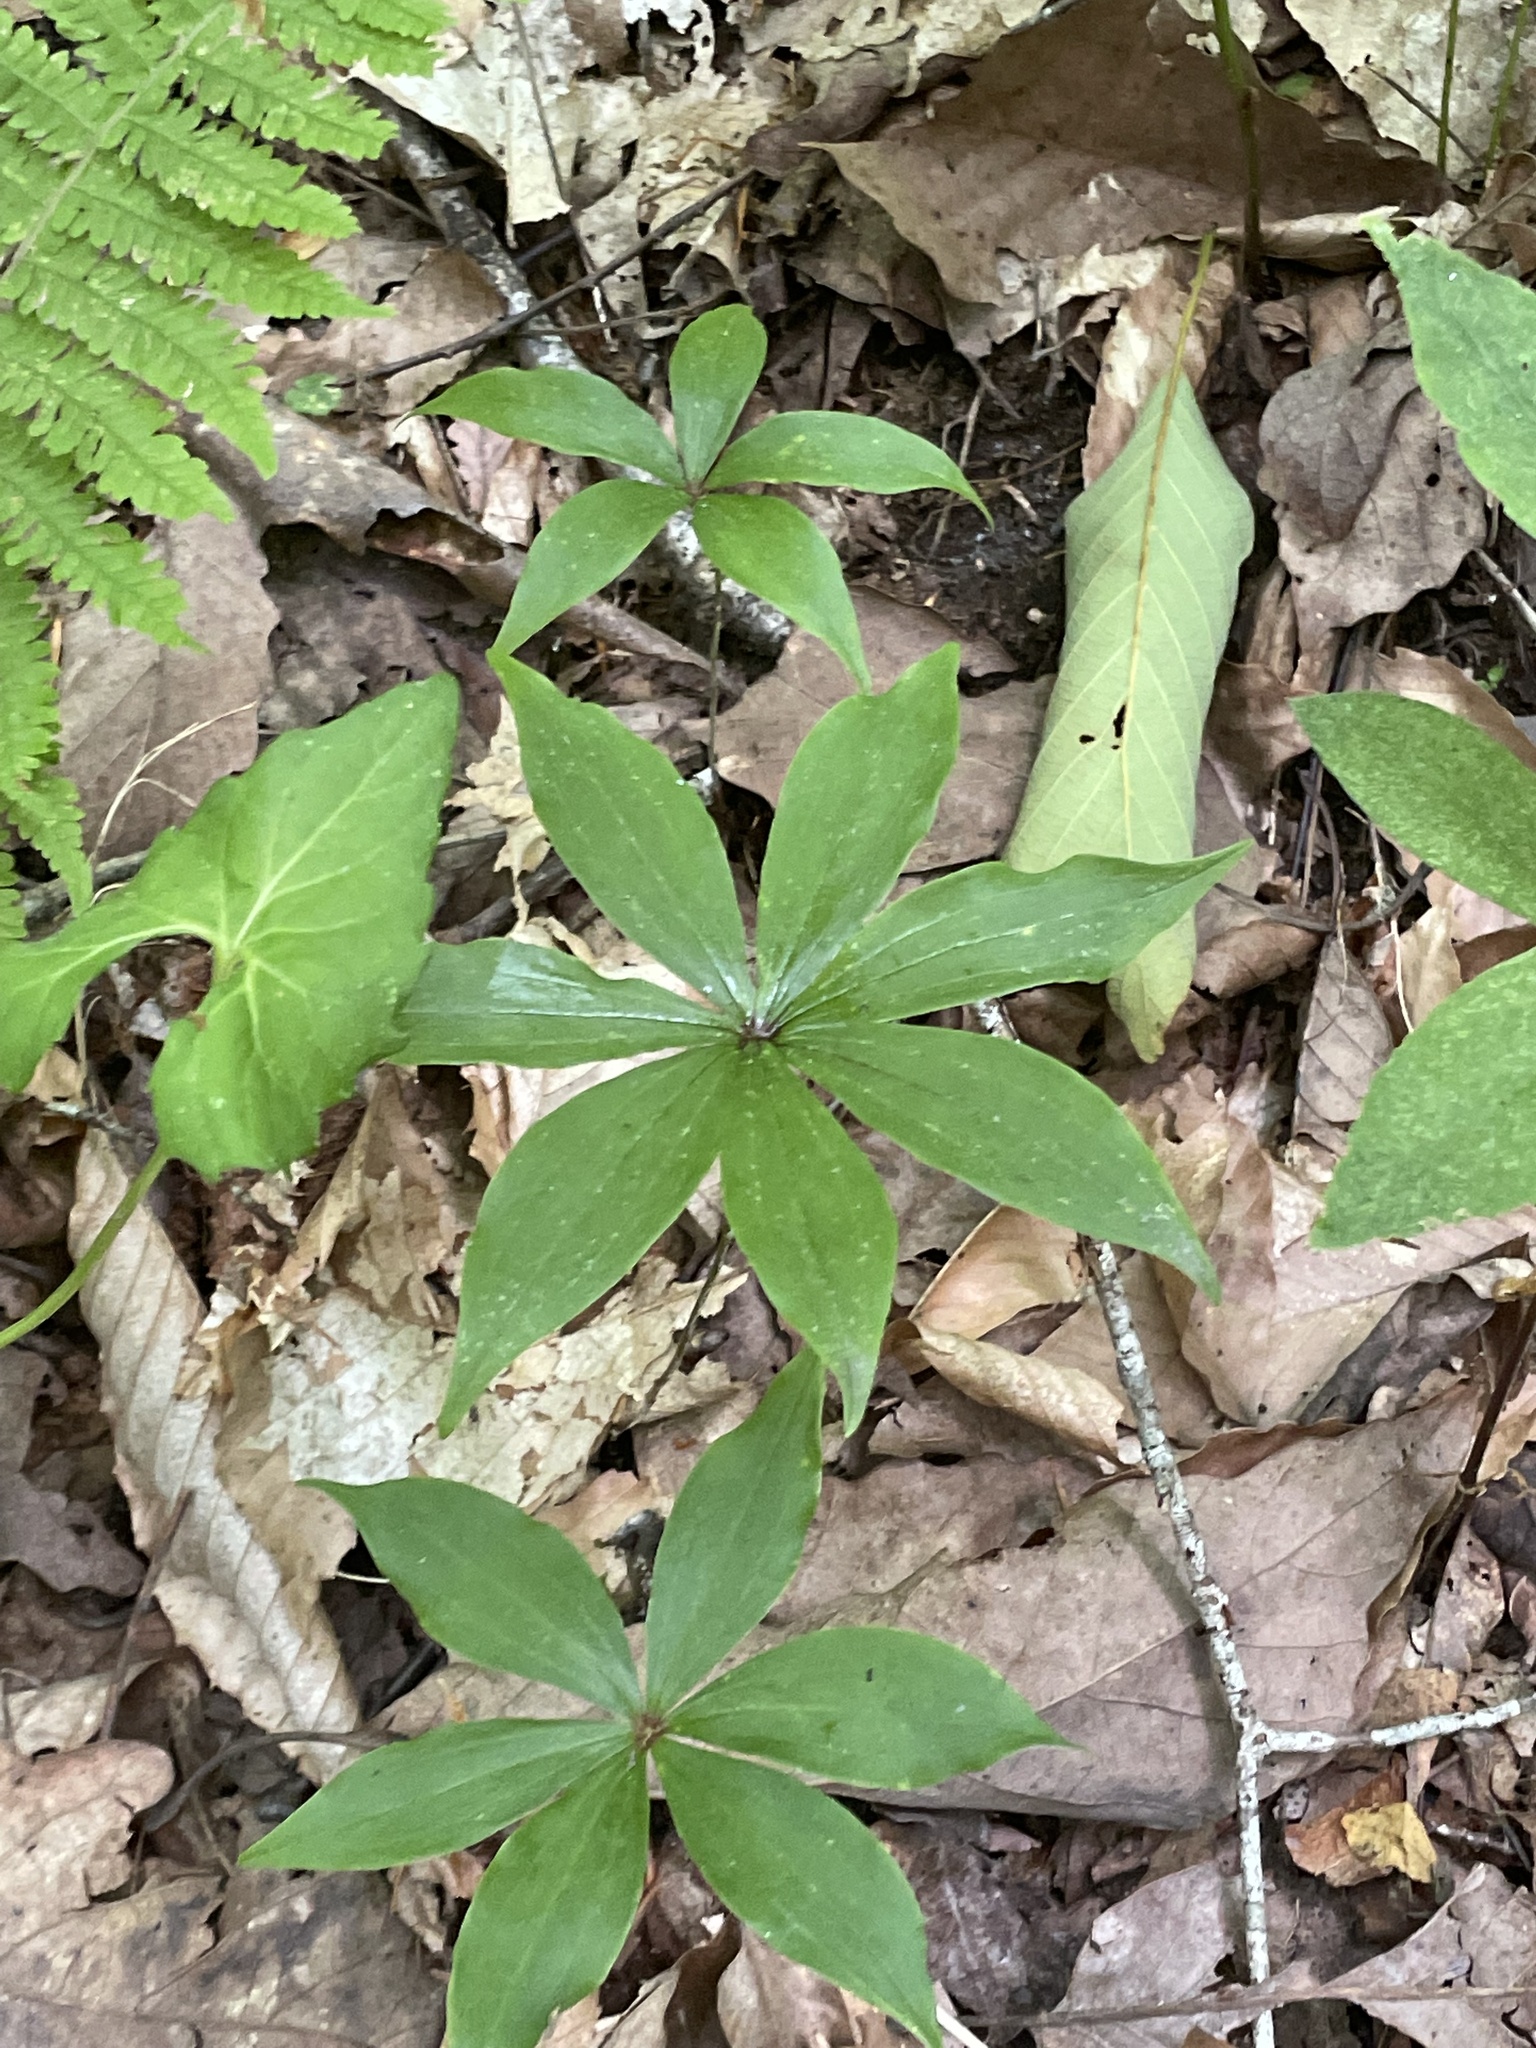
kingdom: Plantae
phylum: Tracheophyta
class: Liliopsida
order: Liliales
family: Liliaceae
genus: Medeola
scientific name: Medeola virginiana
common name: Indian cucumber-root
